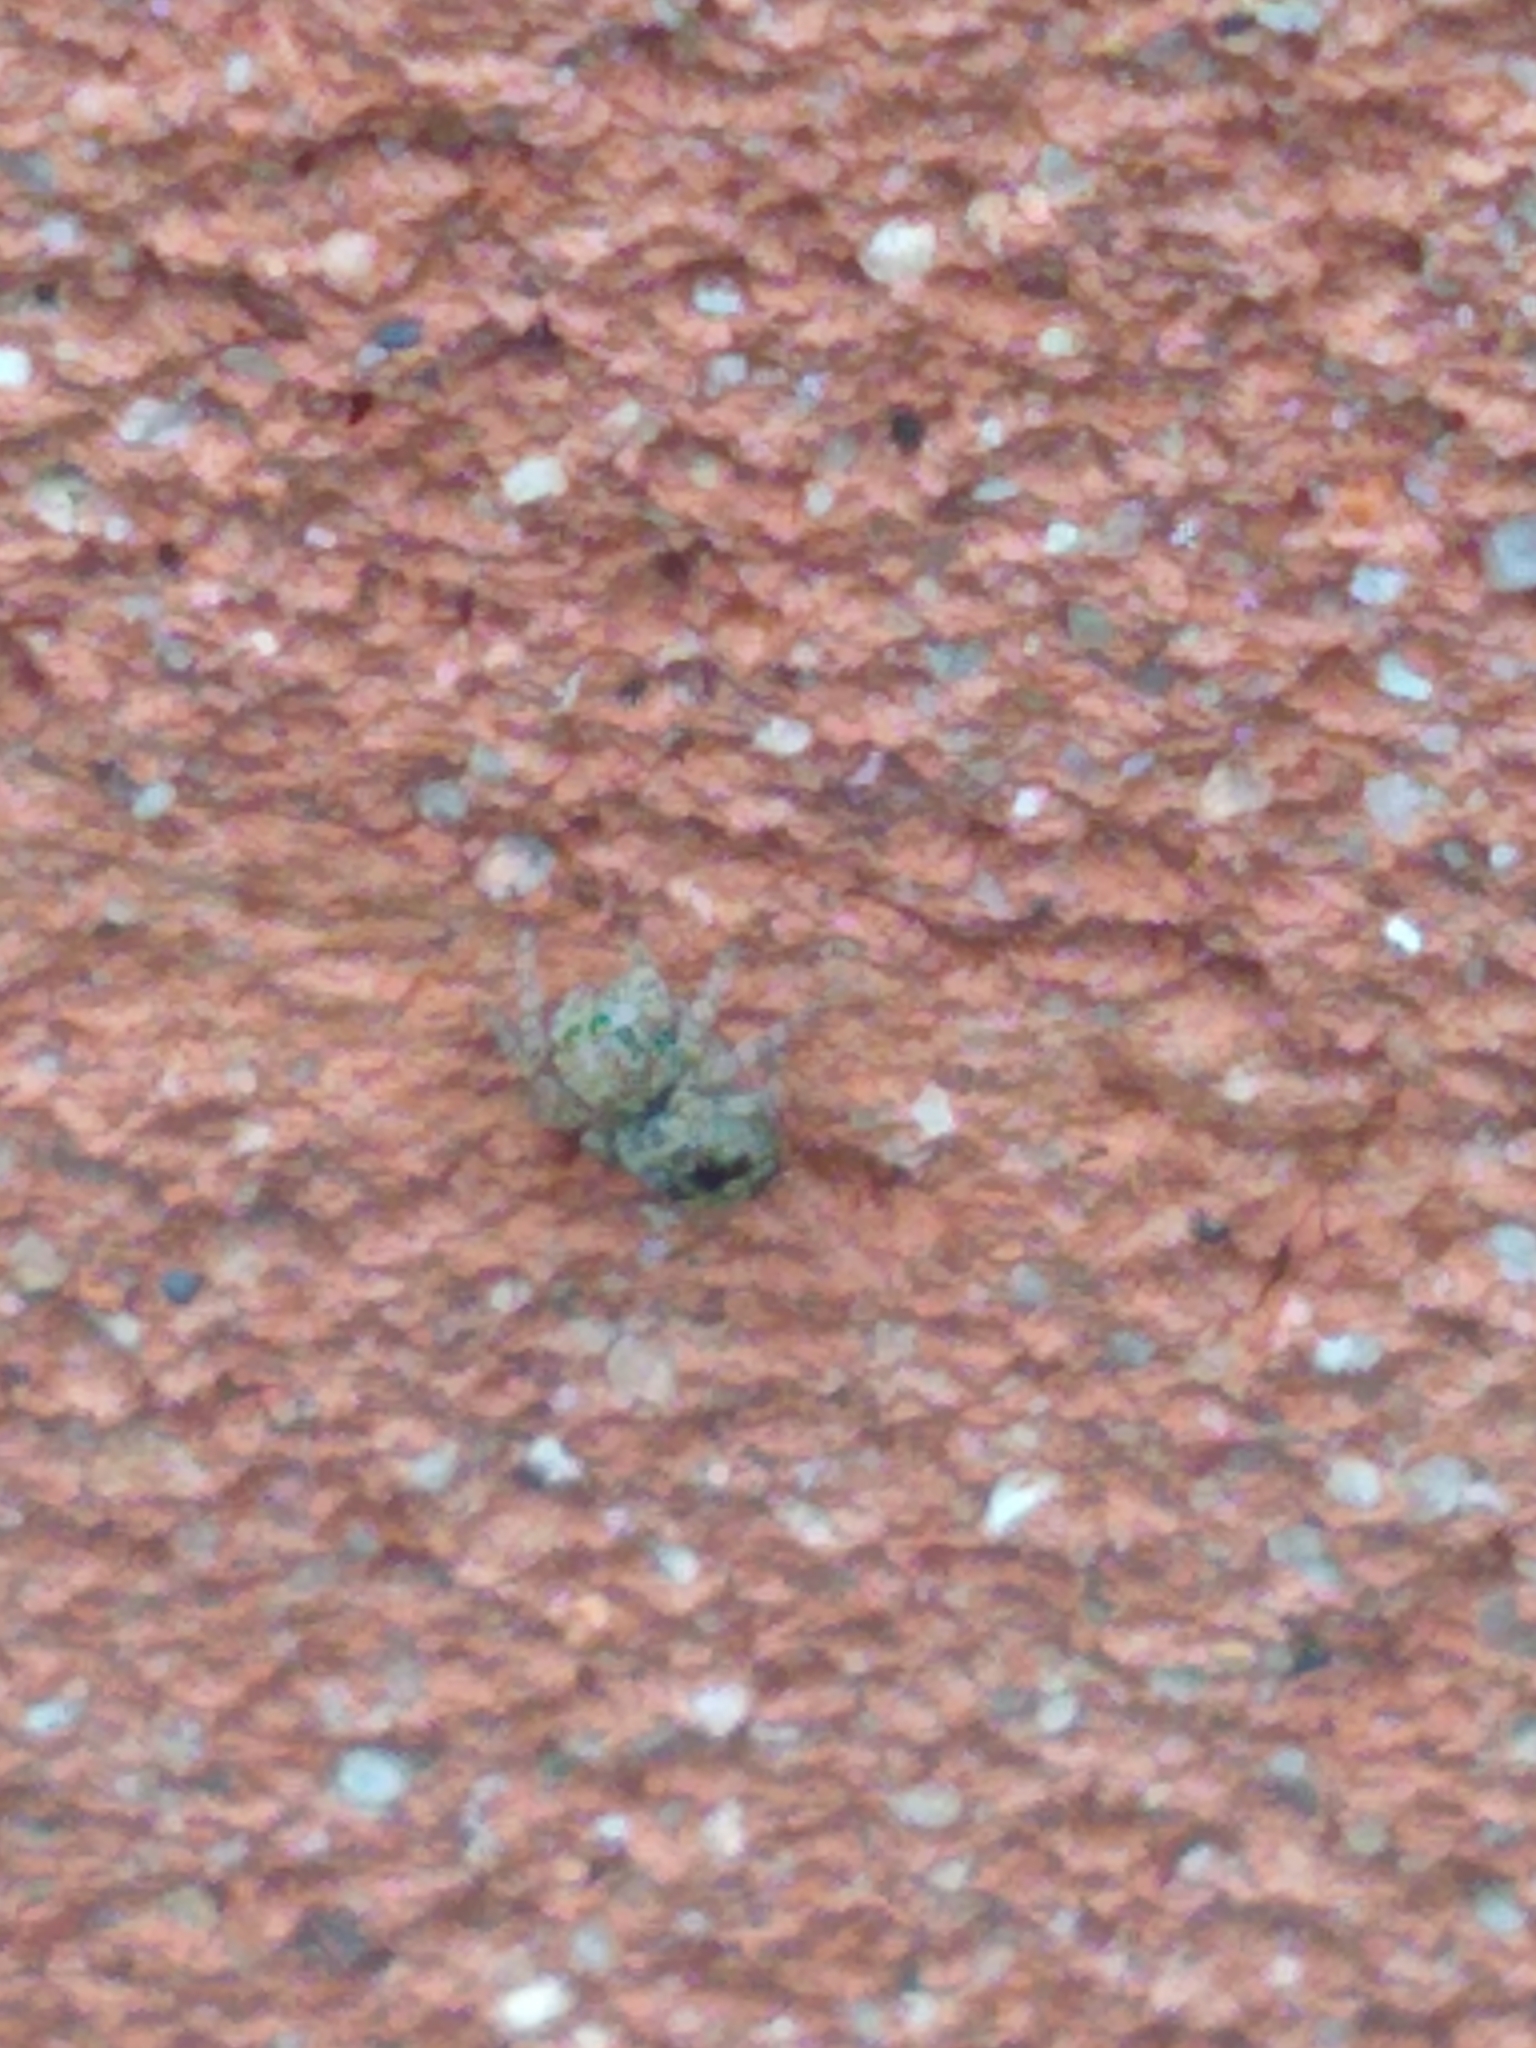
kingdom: Animalia
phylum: Arthropoda
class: Arachnida
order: Araneae
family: Salticidae
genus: Attulus
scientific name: Attulus fasciger
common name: Asiatic wall jumping spider
